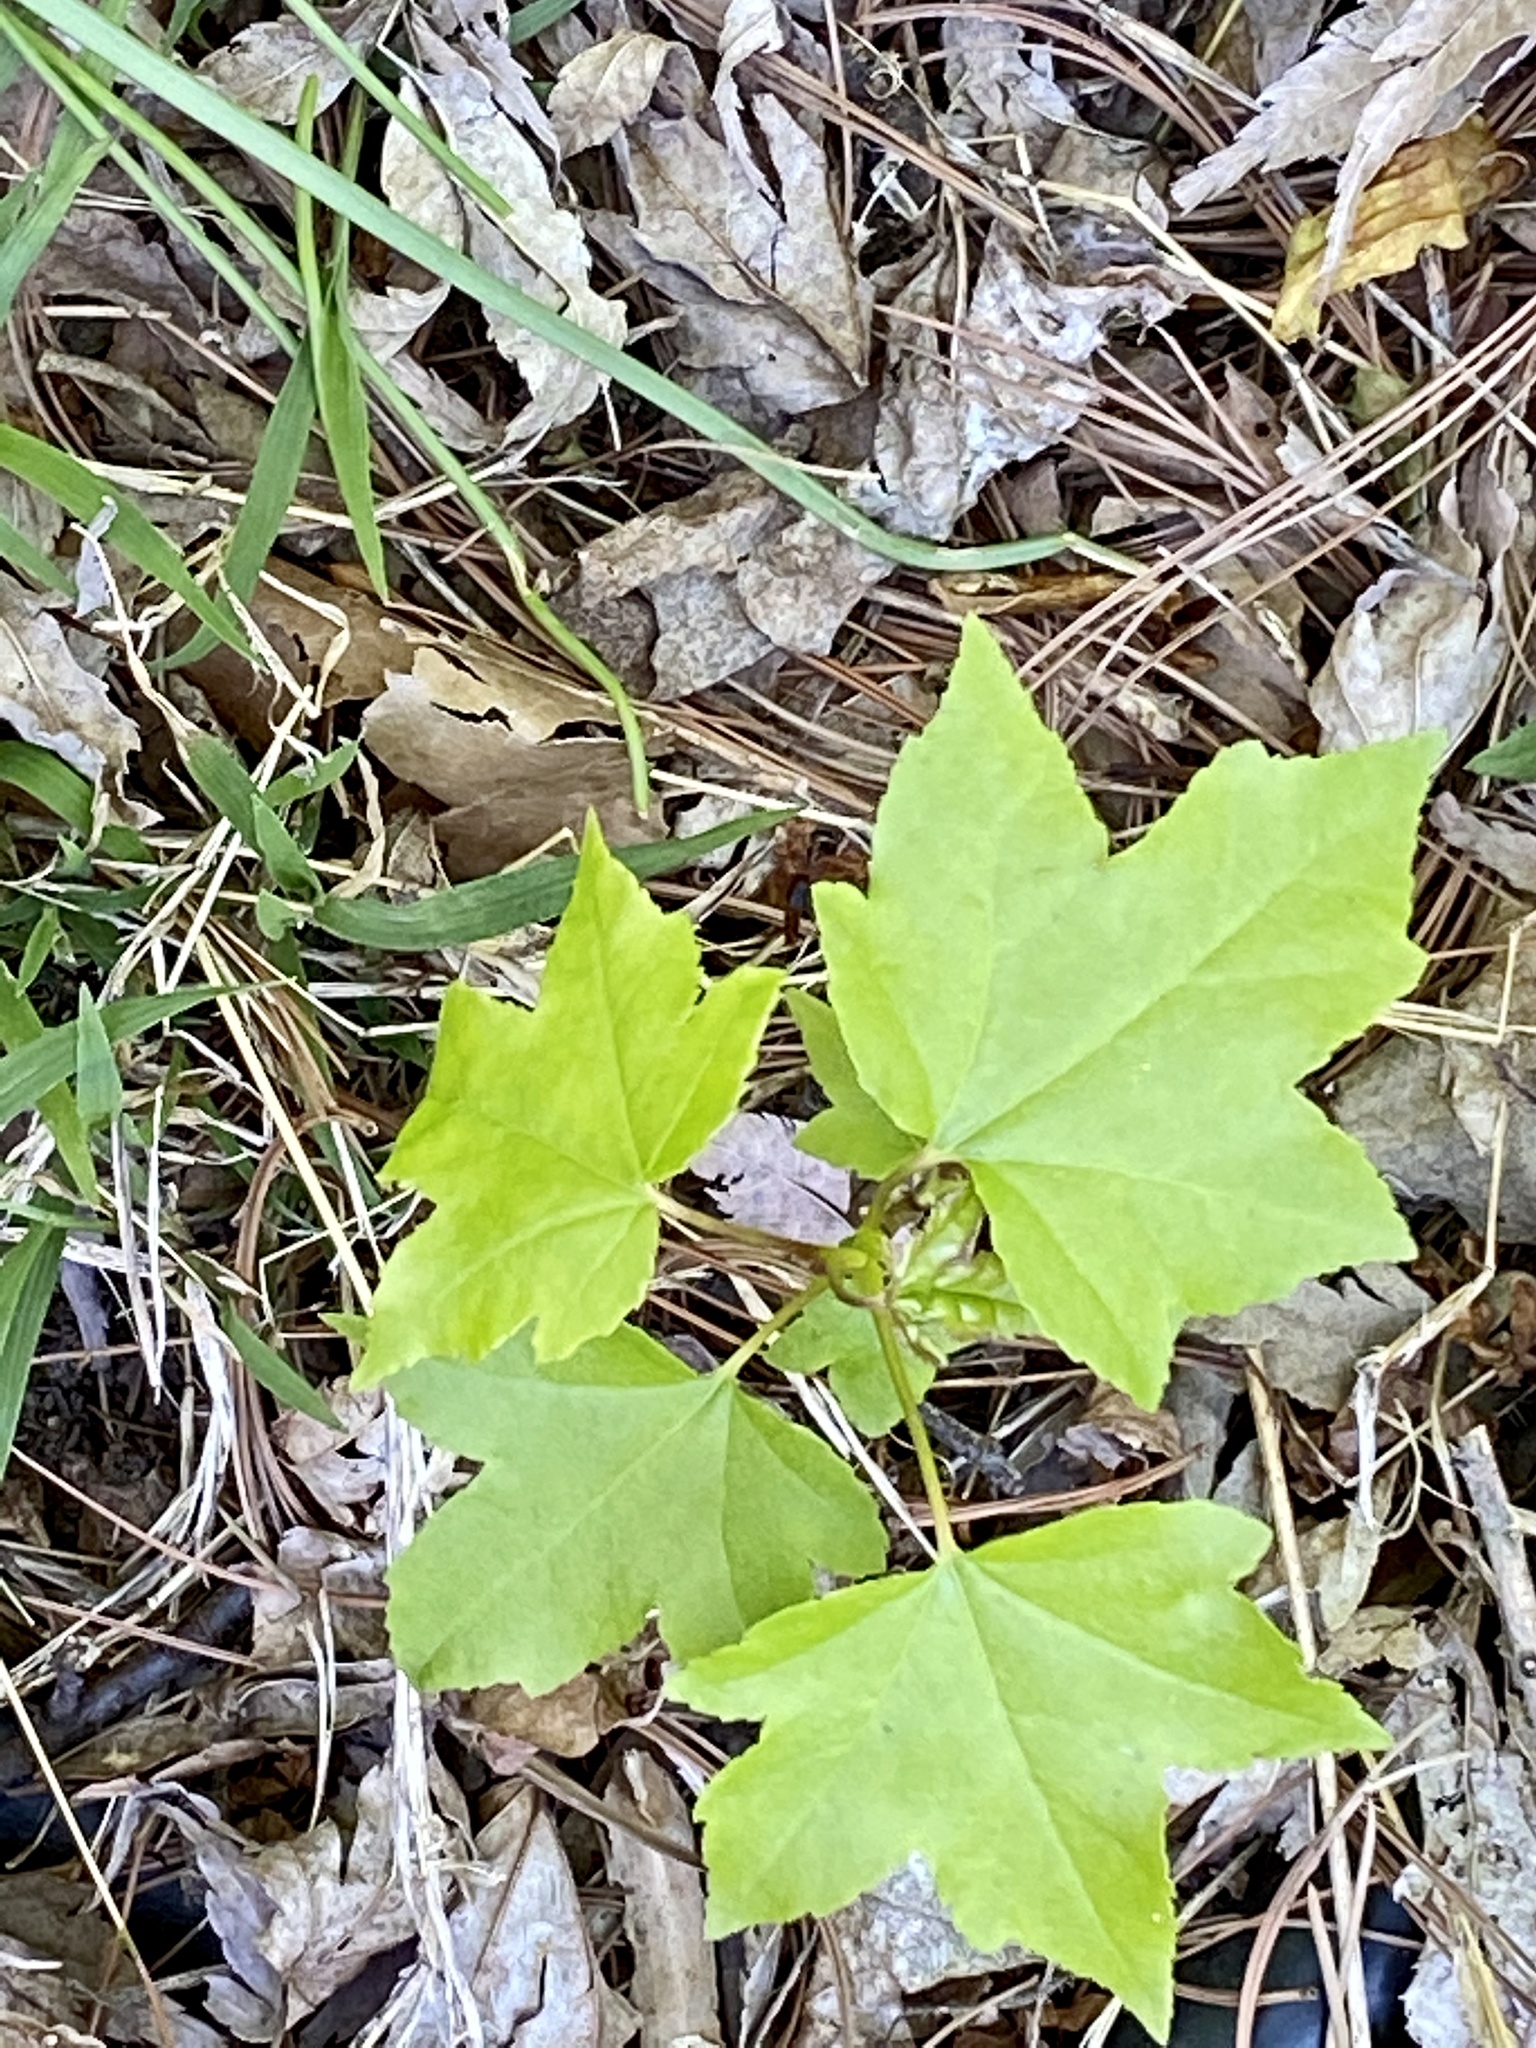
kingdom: Plantae
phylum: Tracheophyta
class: Magnoliopsida
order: Saxifragales
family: Altingiaceae
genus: Liquidambar
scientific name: Liquidambar styraciflua
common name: Sweet gum
